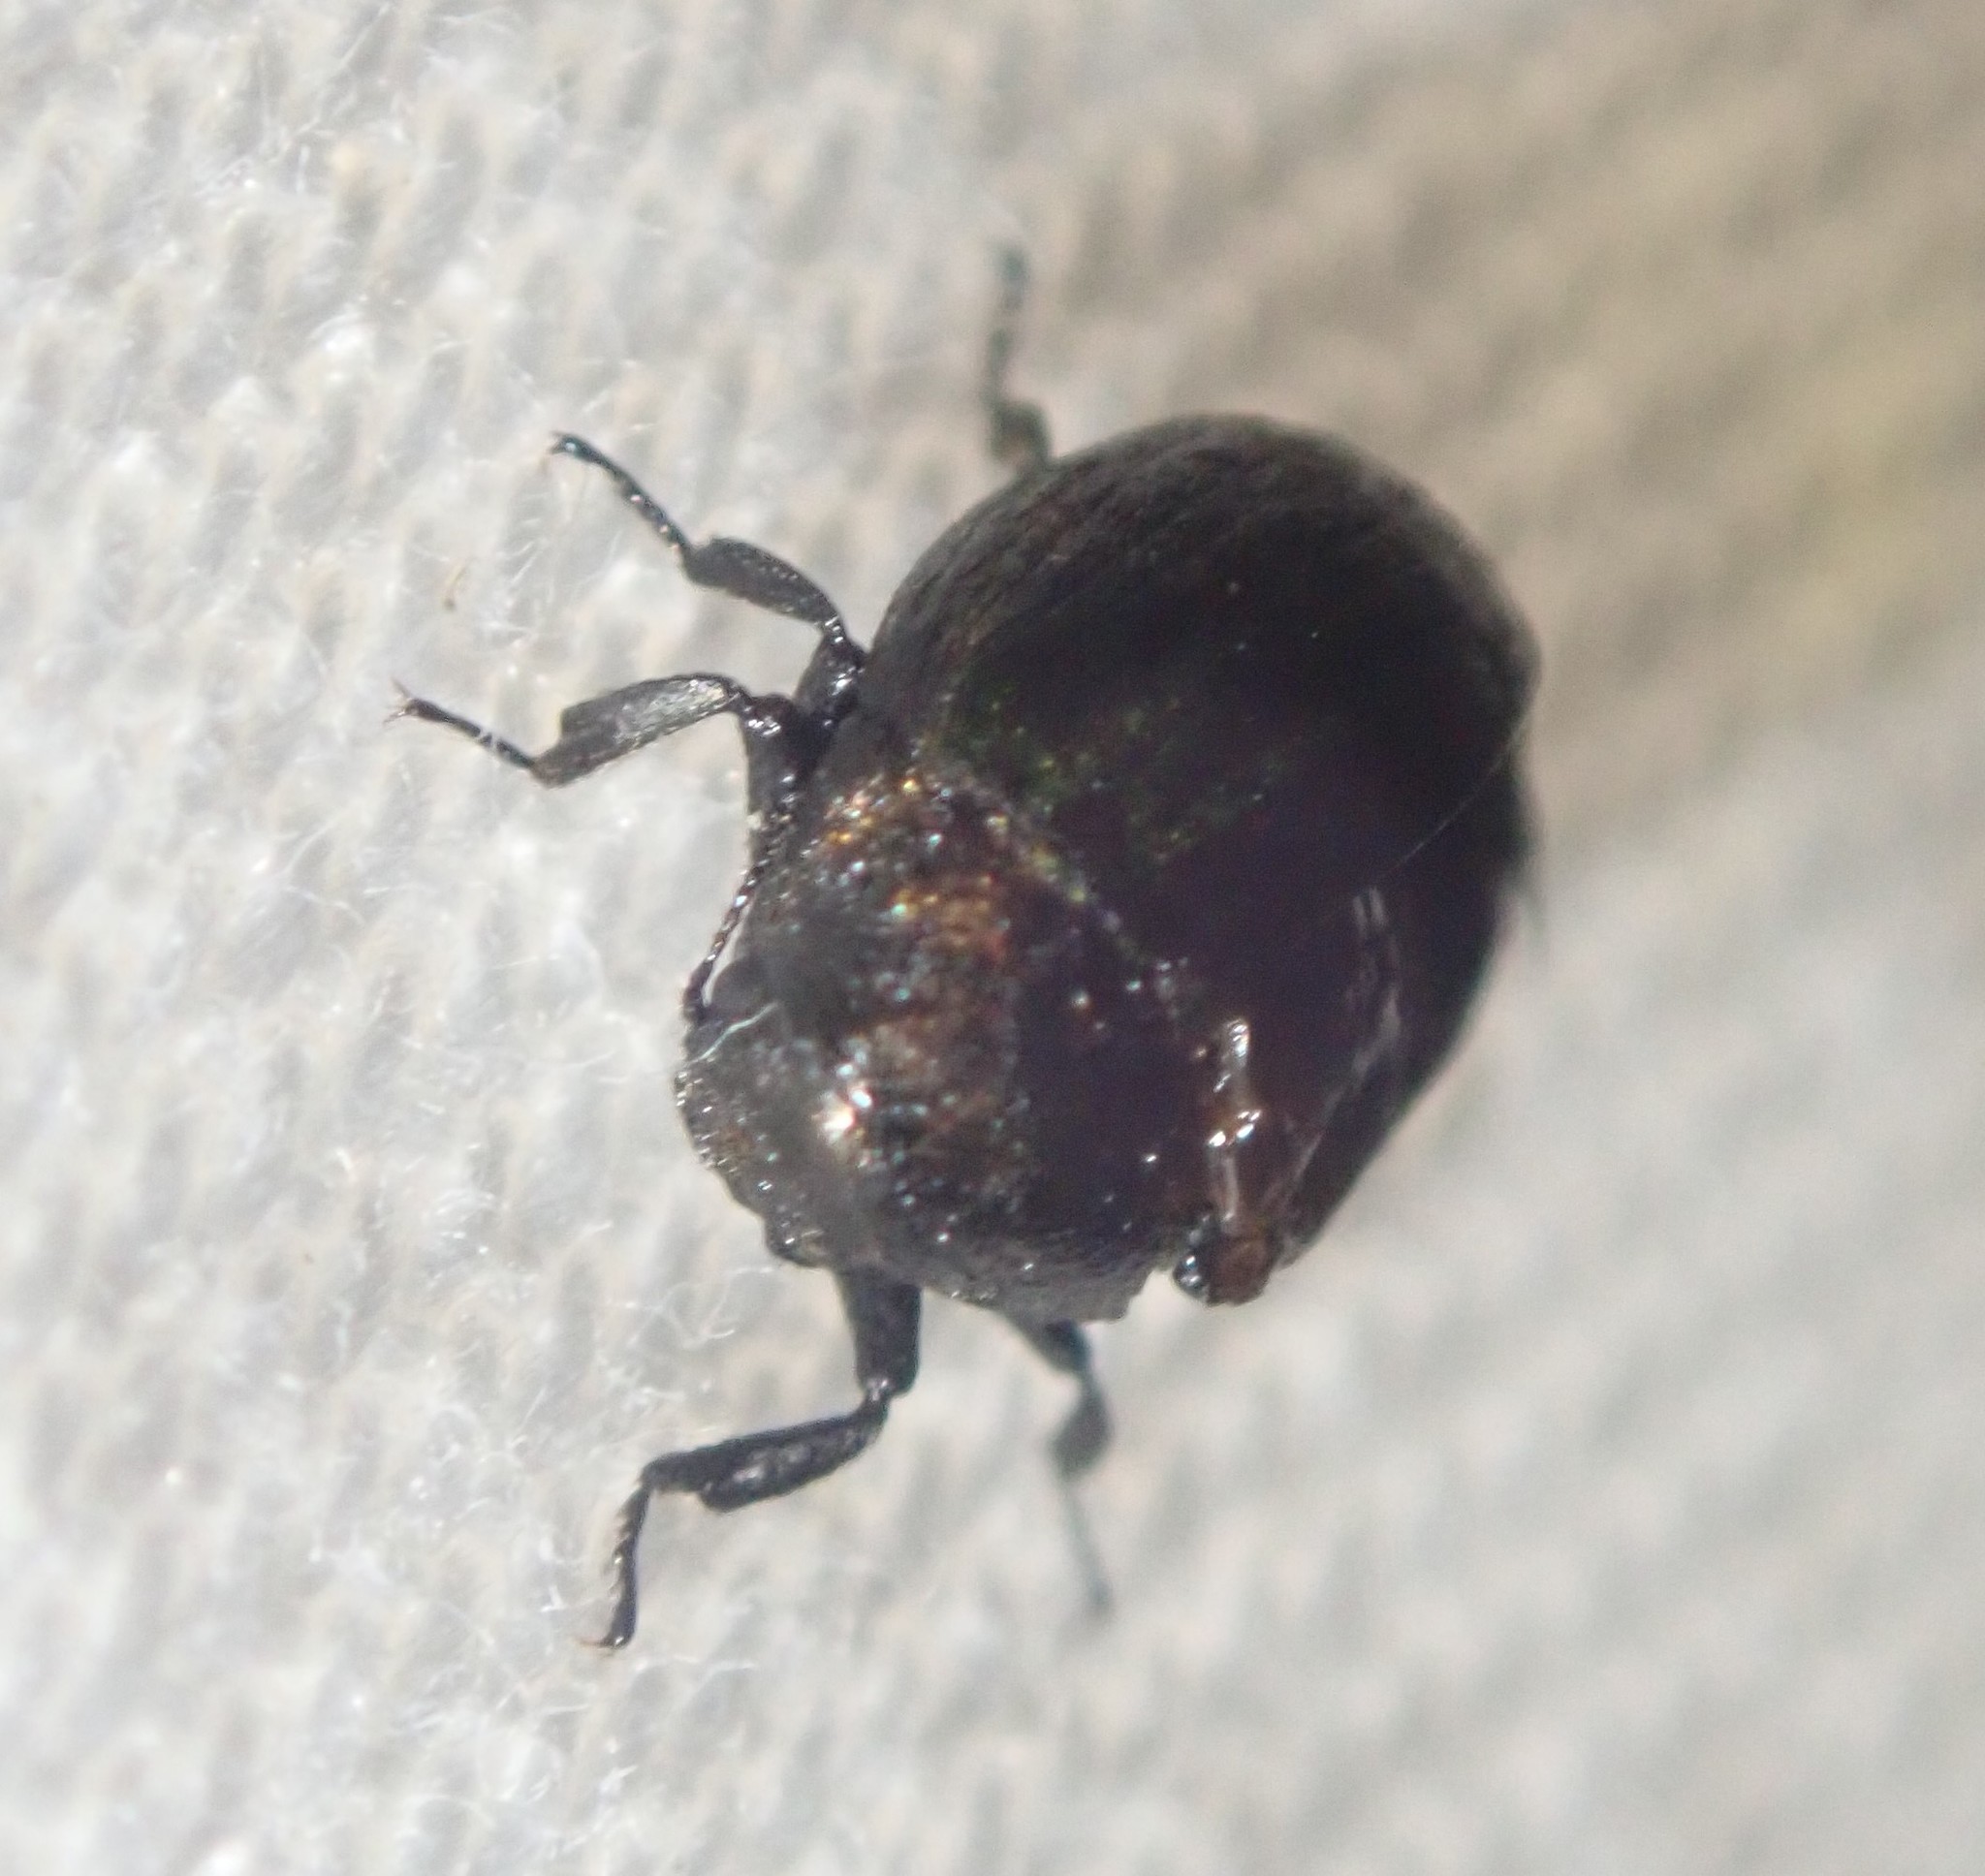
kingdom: Animalia
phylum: Arthropoda
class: Insecta
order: Coleoptera
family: Byrrhidae
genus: Cytilus
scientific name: Cytilus sericeus
